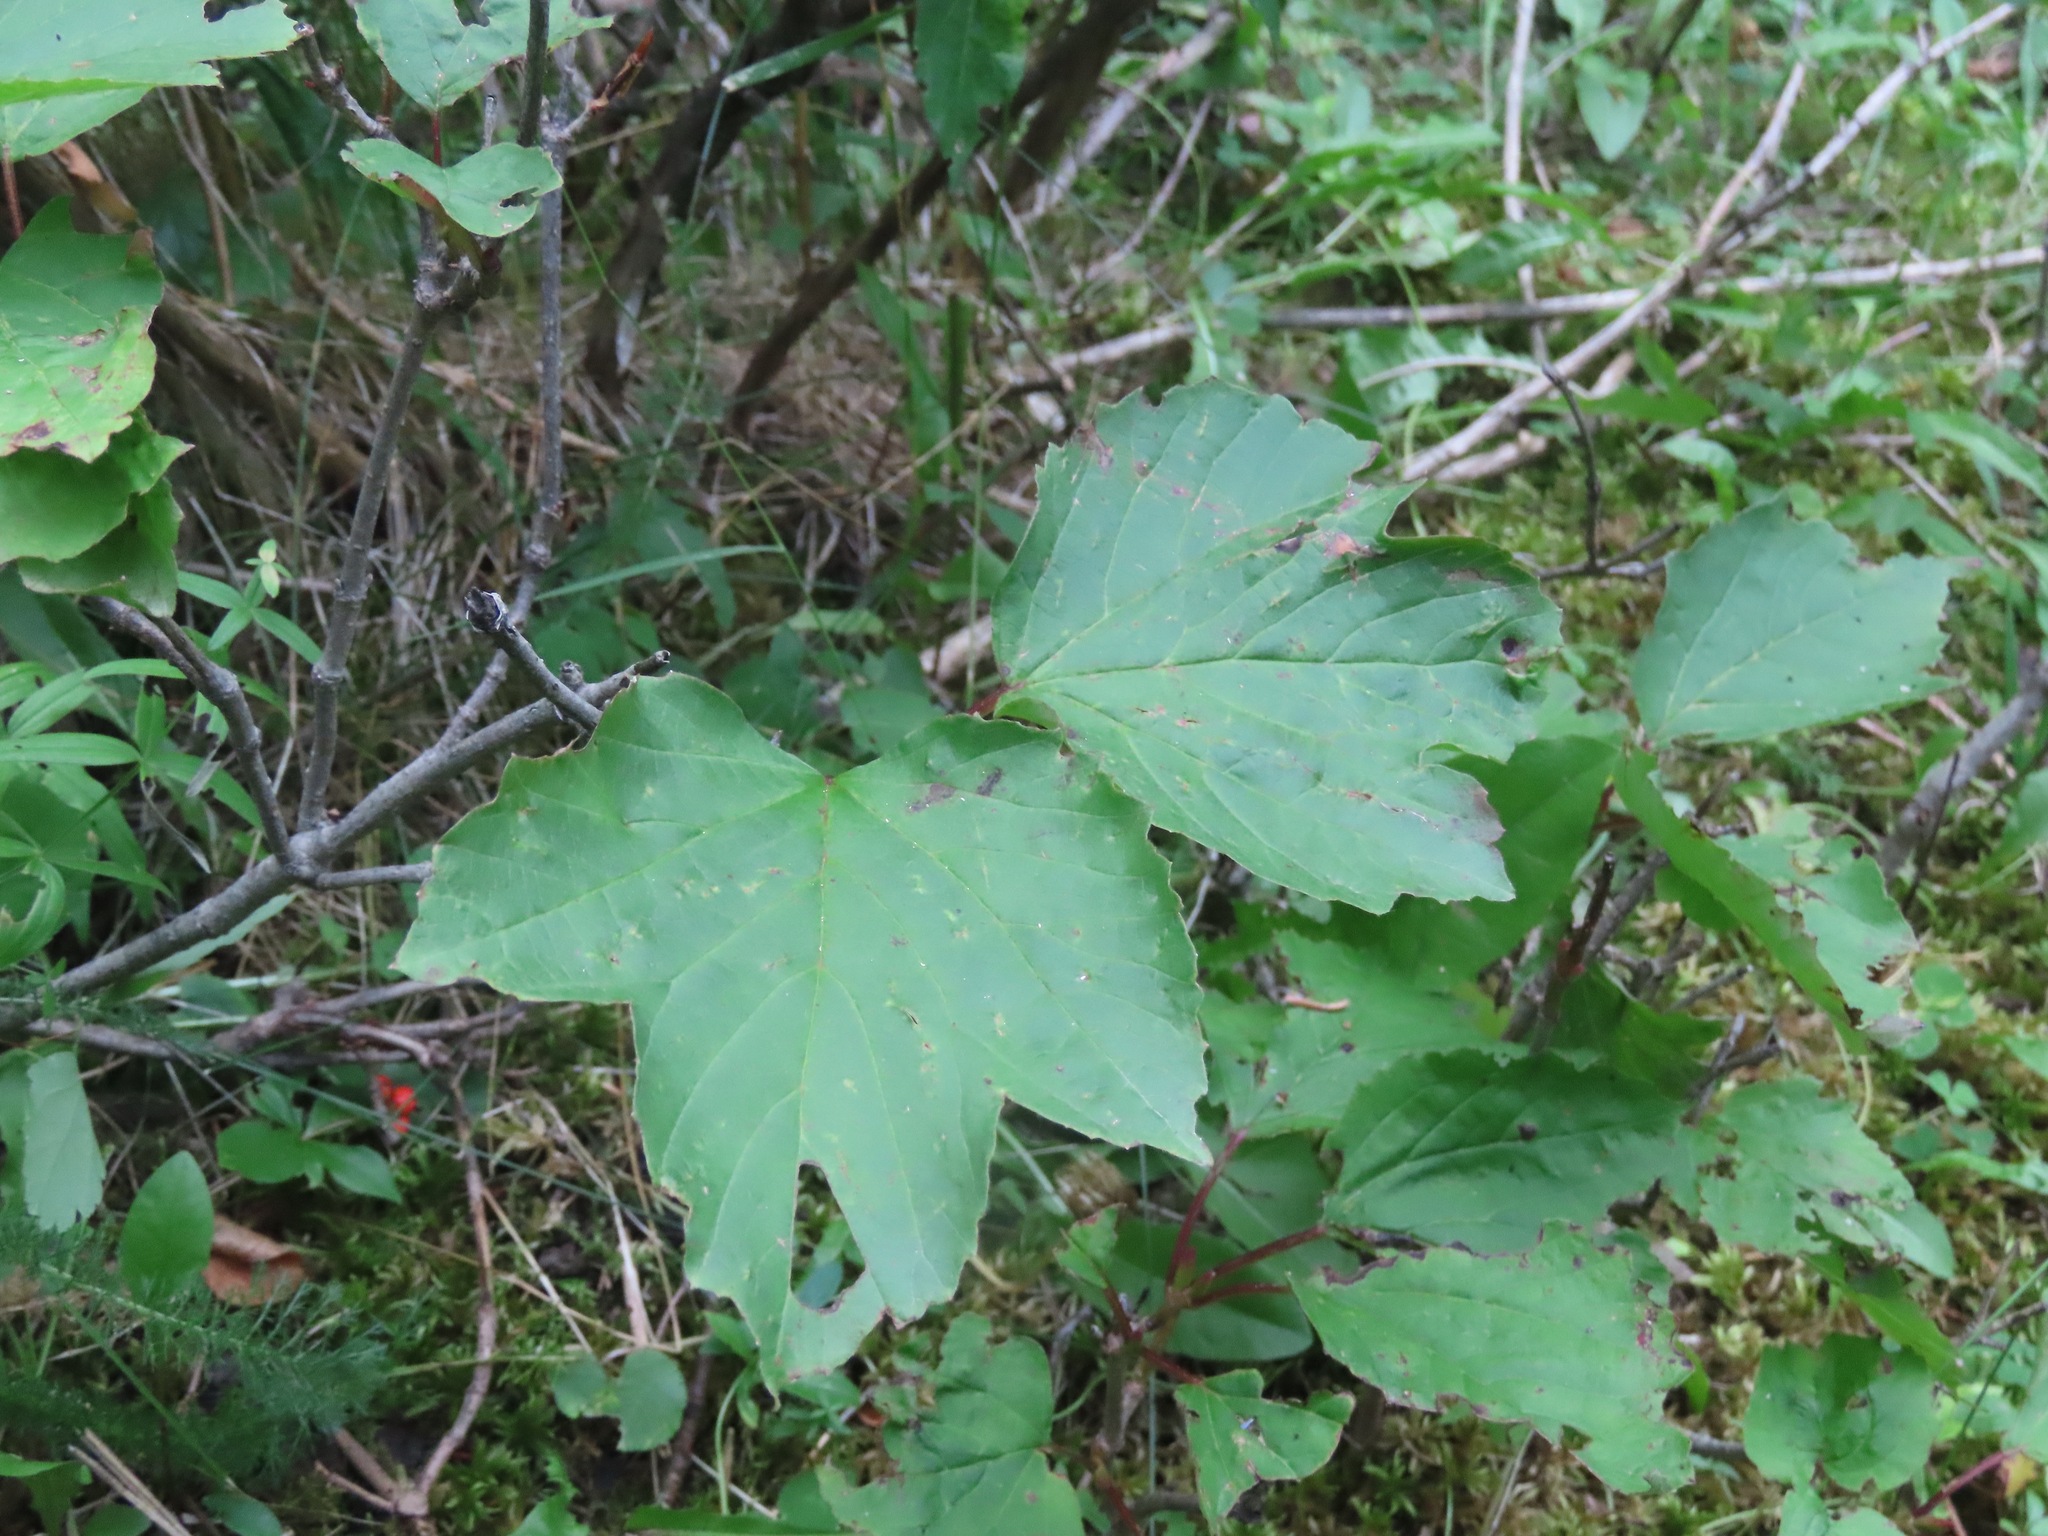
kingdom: Plantae
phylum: Tracheophyta
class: Magnoliopsida
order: Dipsacales
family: Viburnaceae
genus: Viburnum
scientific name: Viburnum edule
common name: Mooseberry
